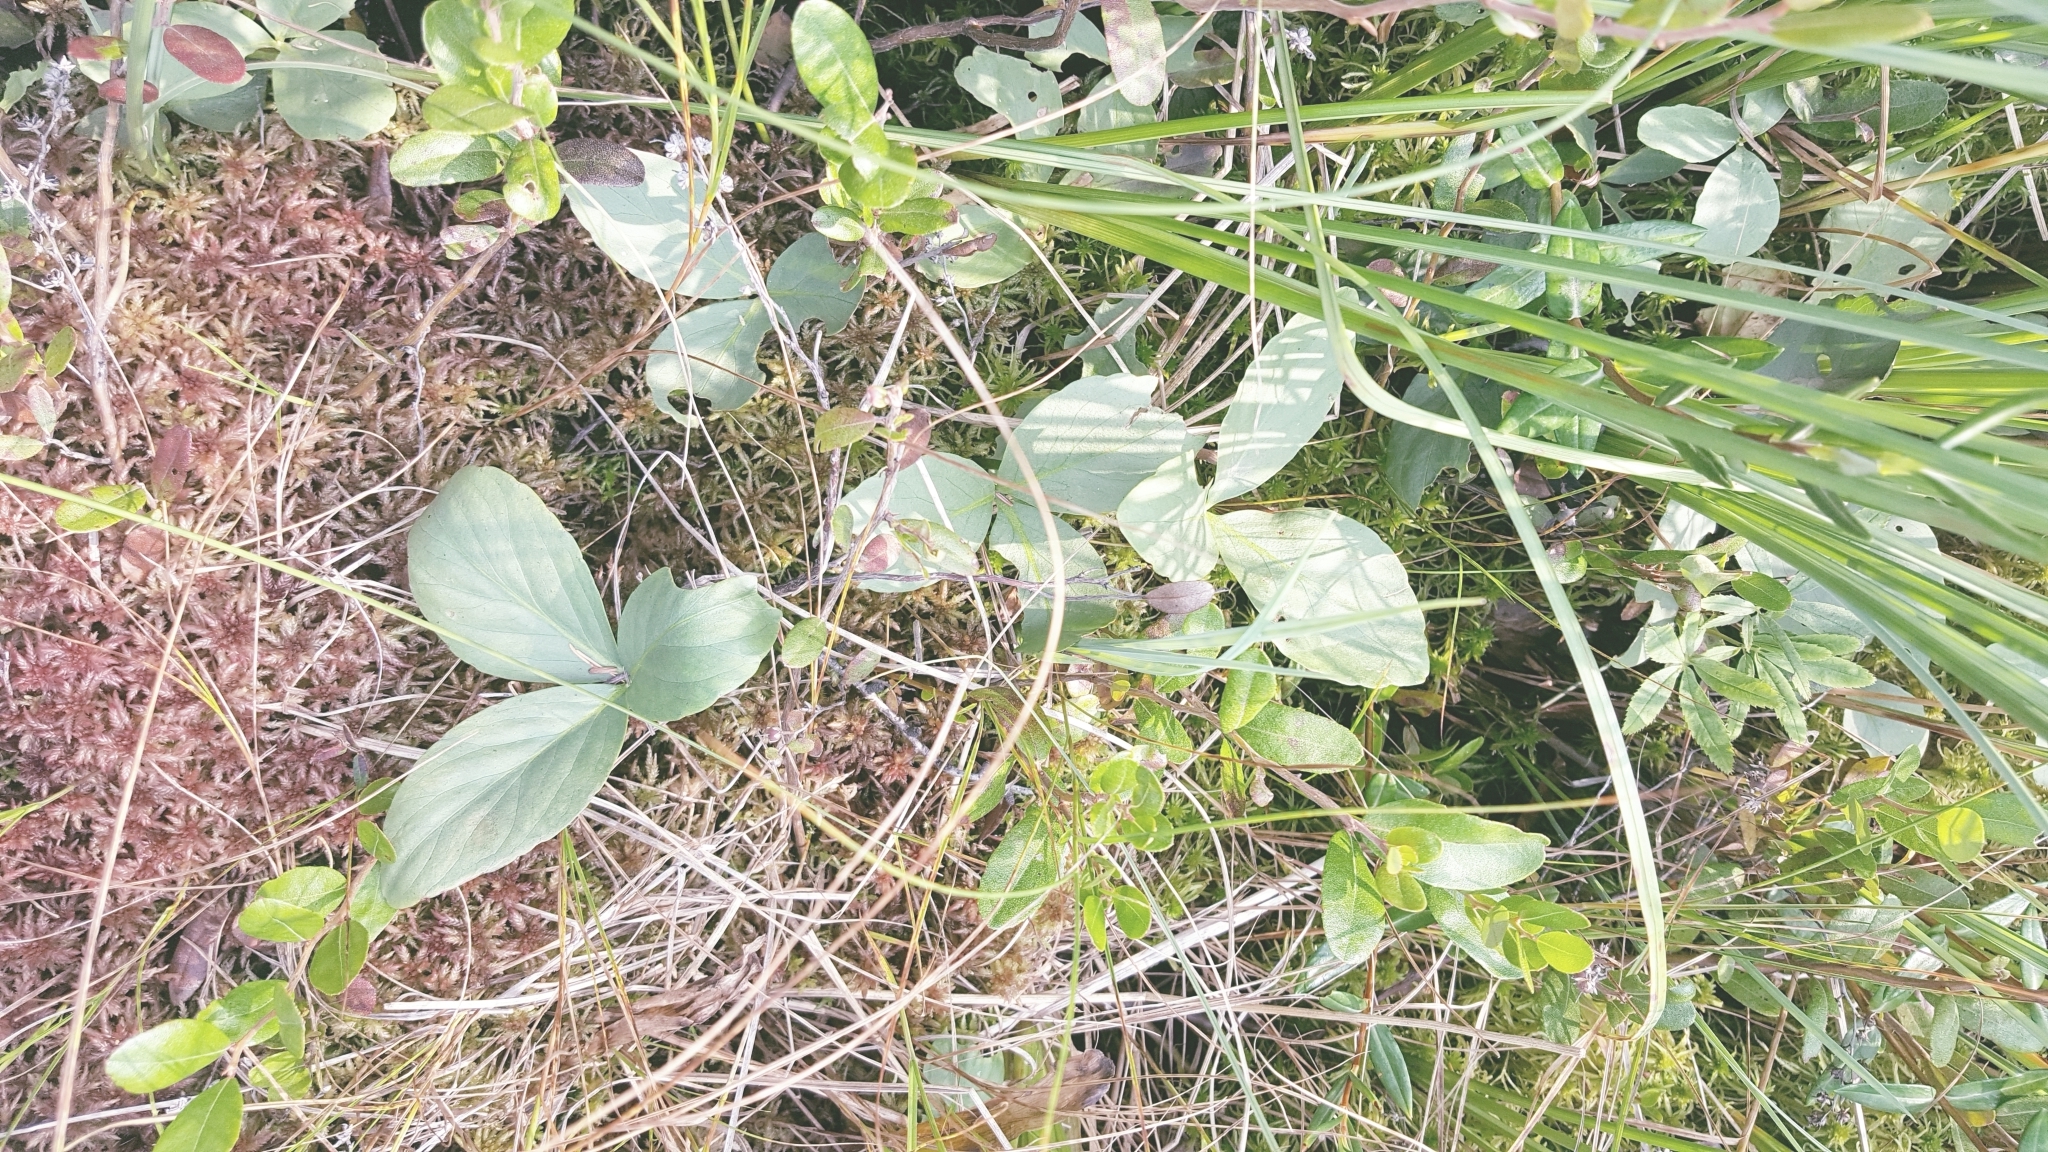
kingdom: Plantae
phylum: Tracheophyta
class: Magnoliopsida
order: Asterales
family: Menyanthaceae
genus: Menyanthes
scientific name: Menyanthes trifoliata
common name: Bogbean
